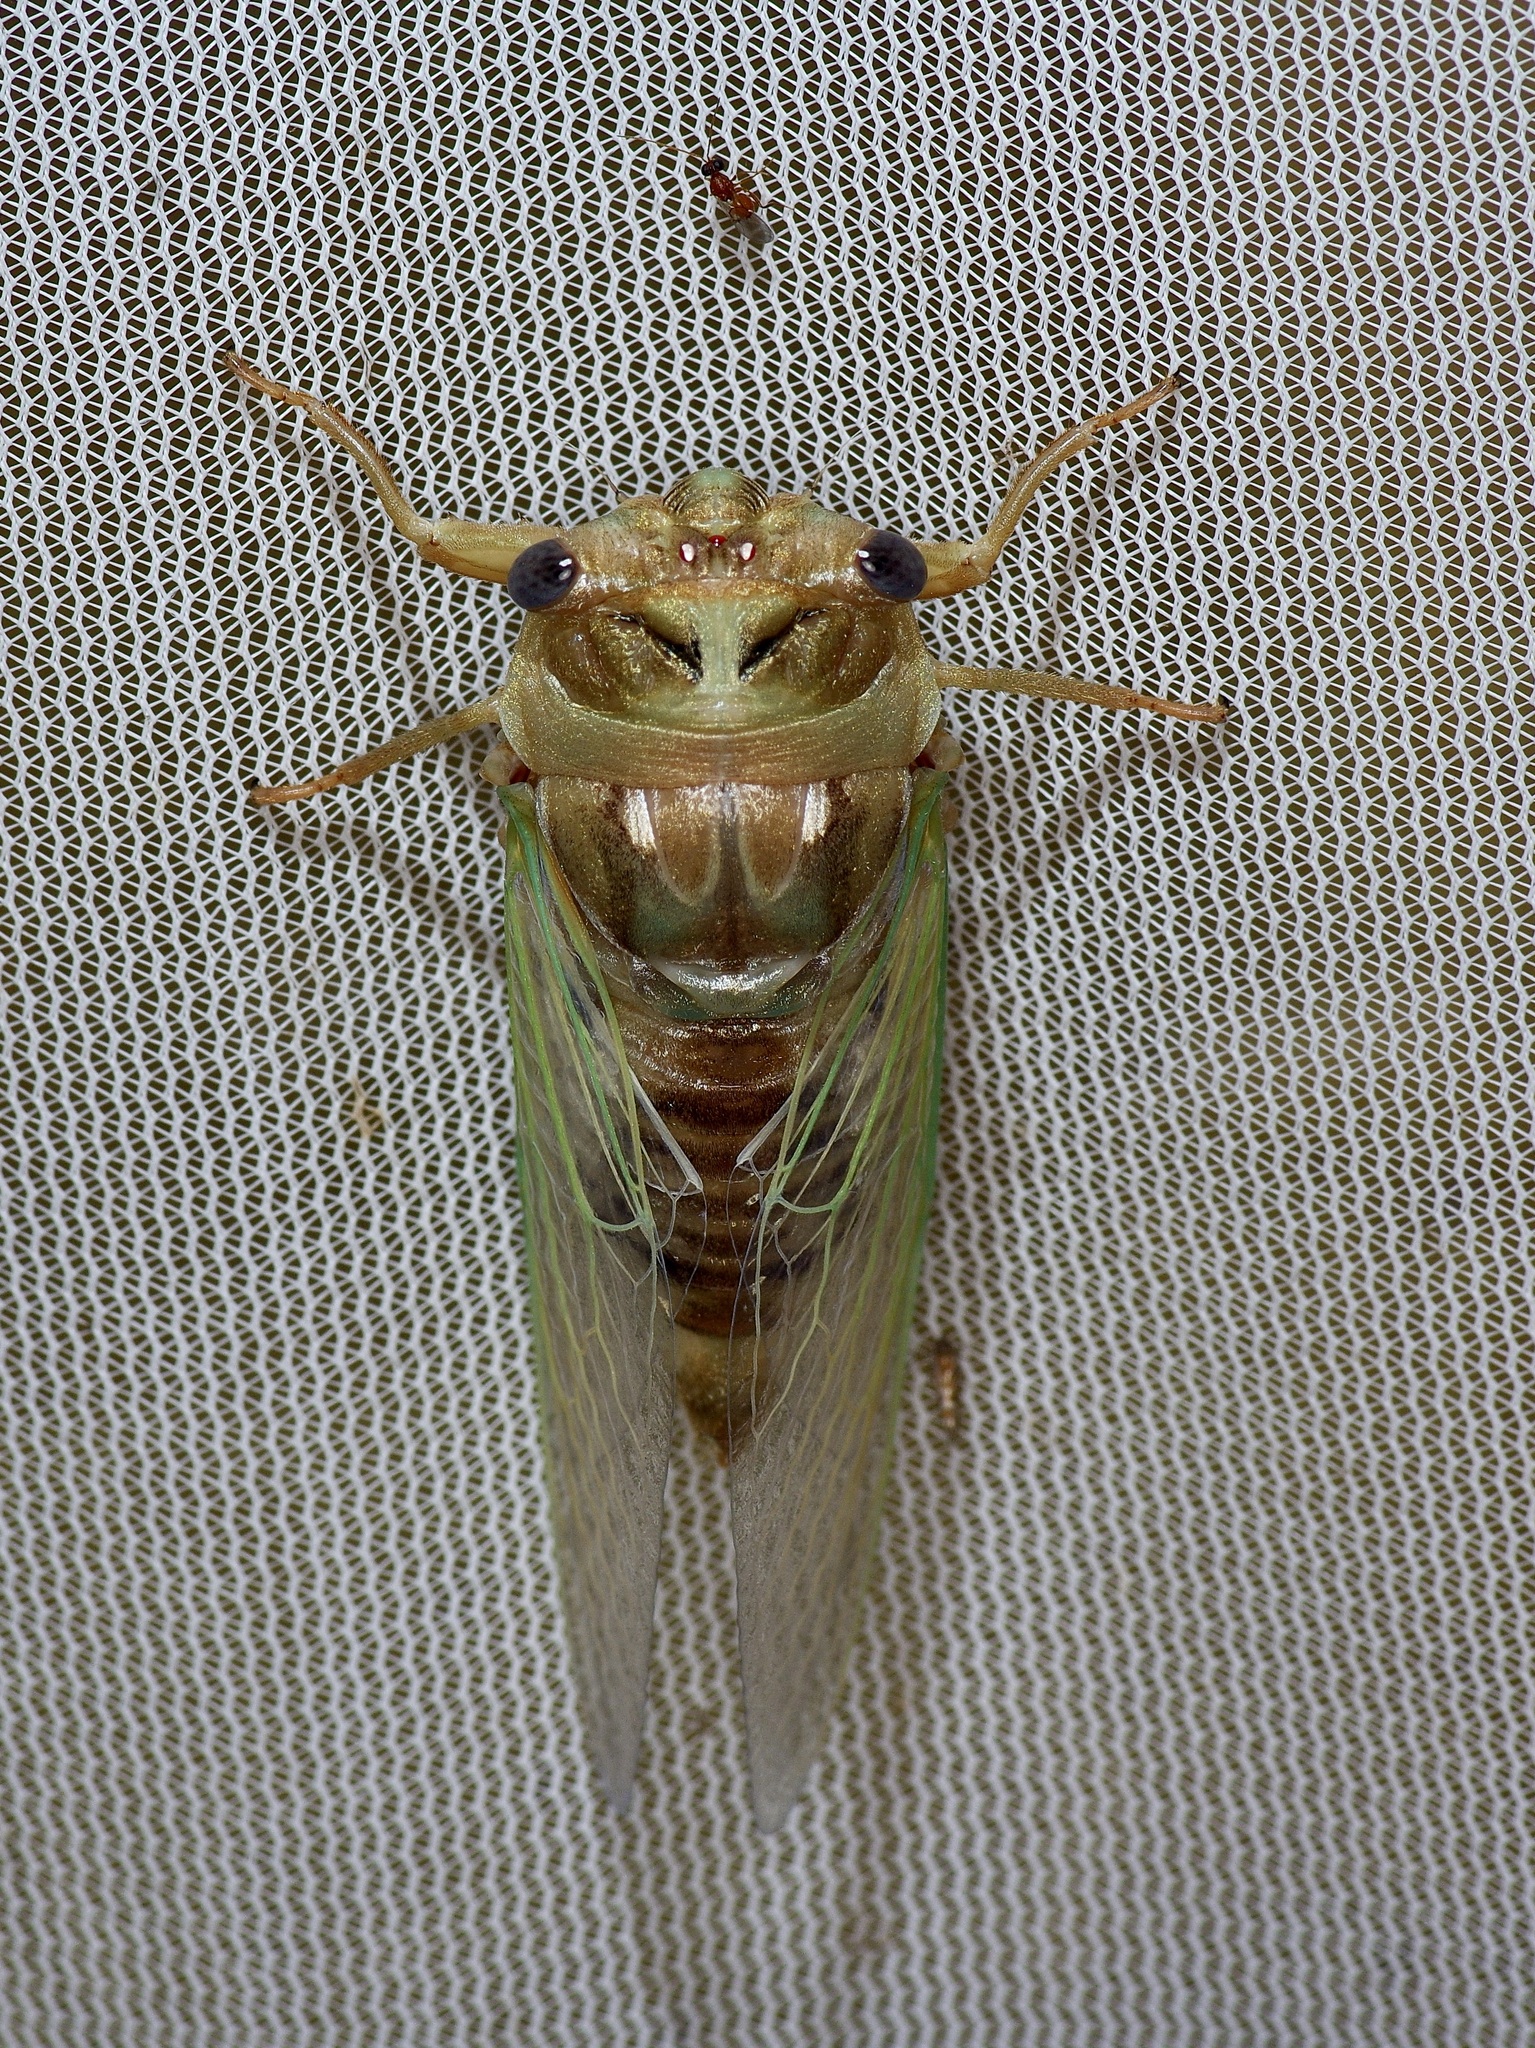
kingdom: Animalia
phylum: Arthropoda
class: Insecta
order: Hemiptera
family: Cicadidae
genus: Megatibicen
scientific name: Megatibicen resh
